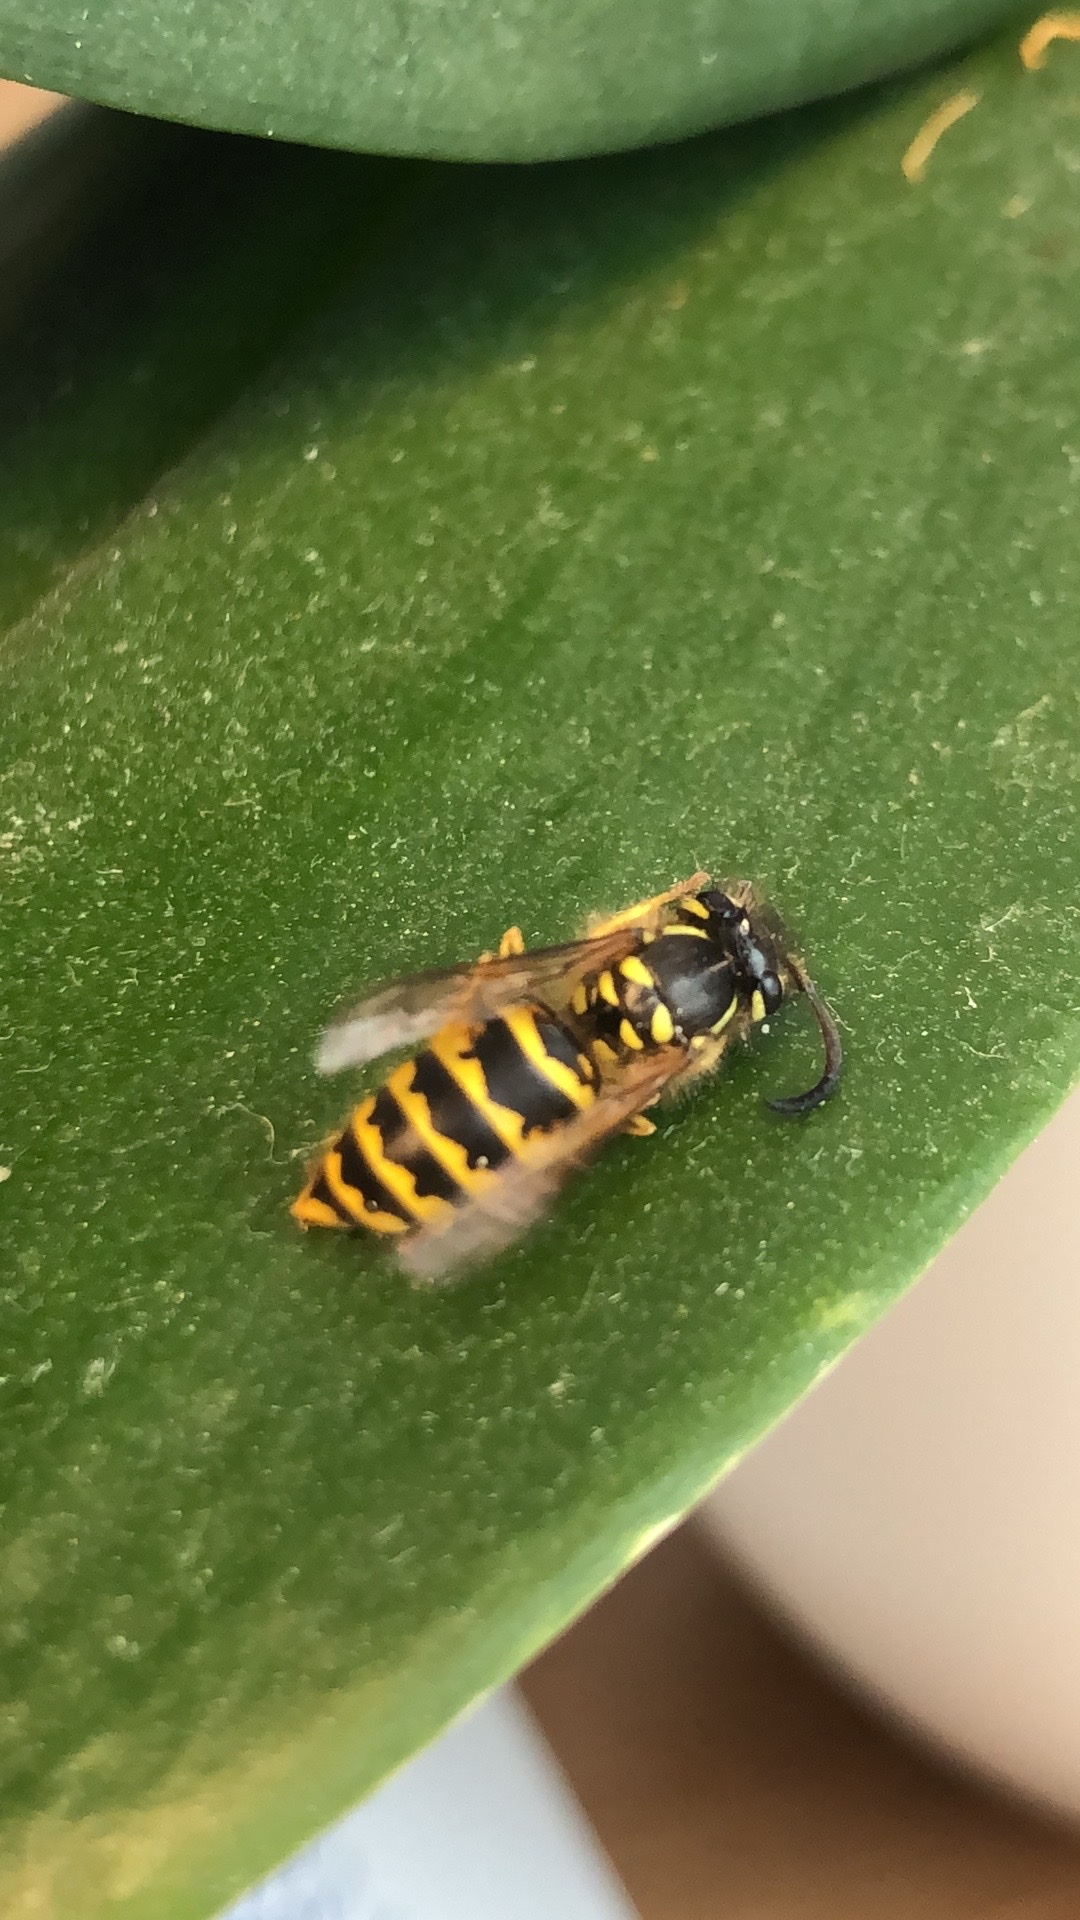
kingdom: Animalia
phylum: Arthropoda
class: Insecta
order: Hymenoptera
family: Vespidae
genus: Vespula
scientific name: Vespula vulgaris
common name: Common wasp
